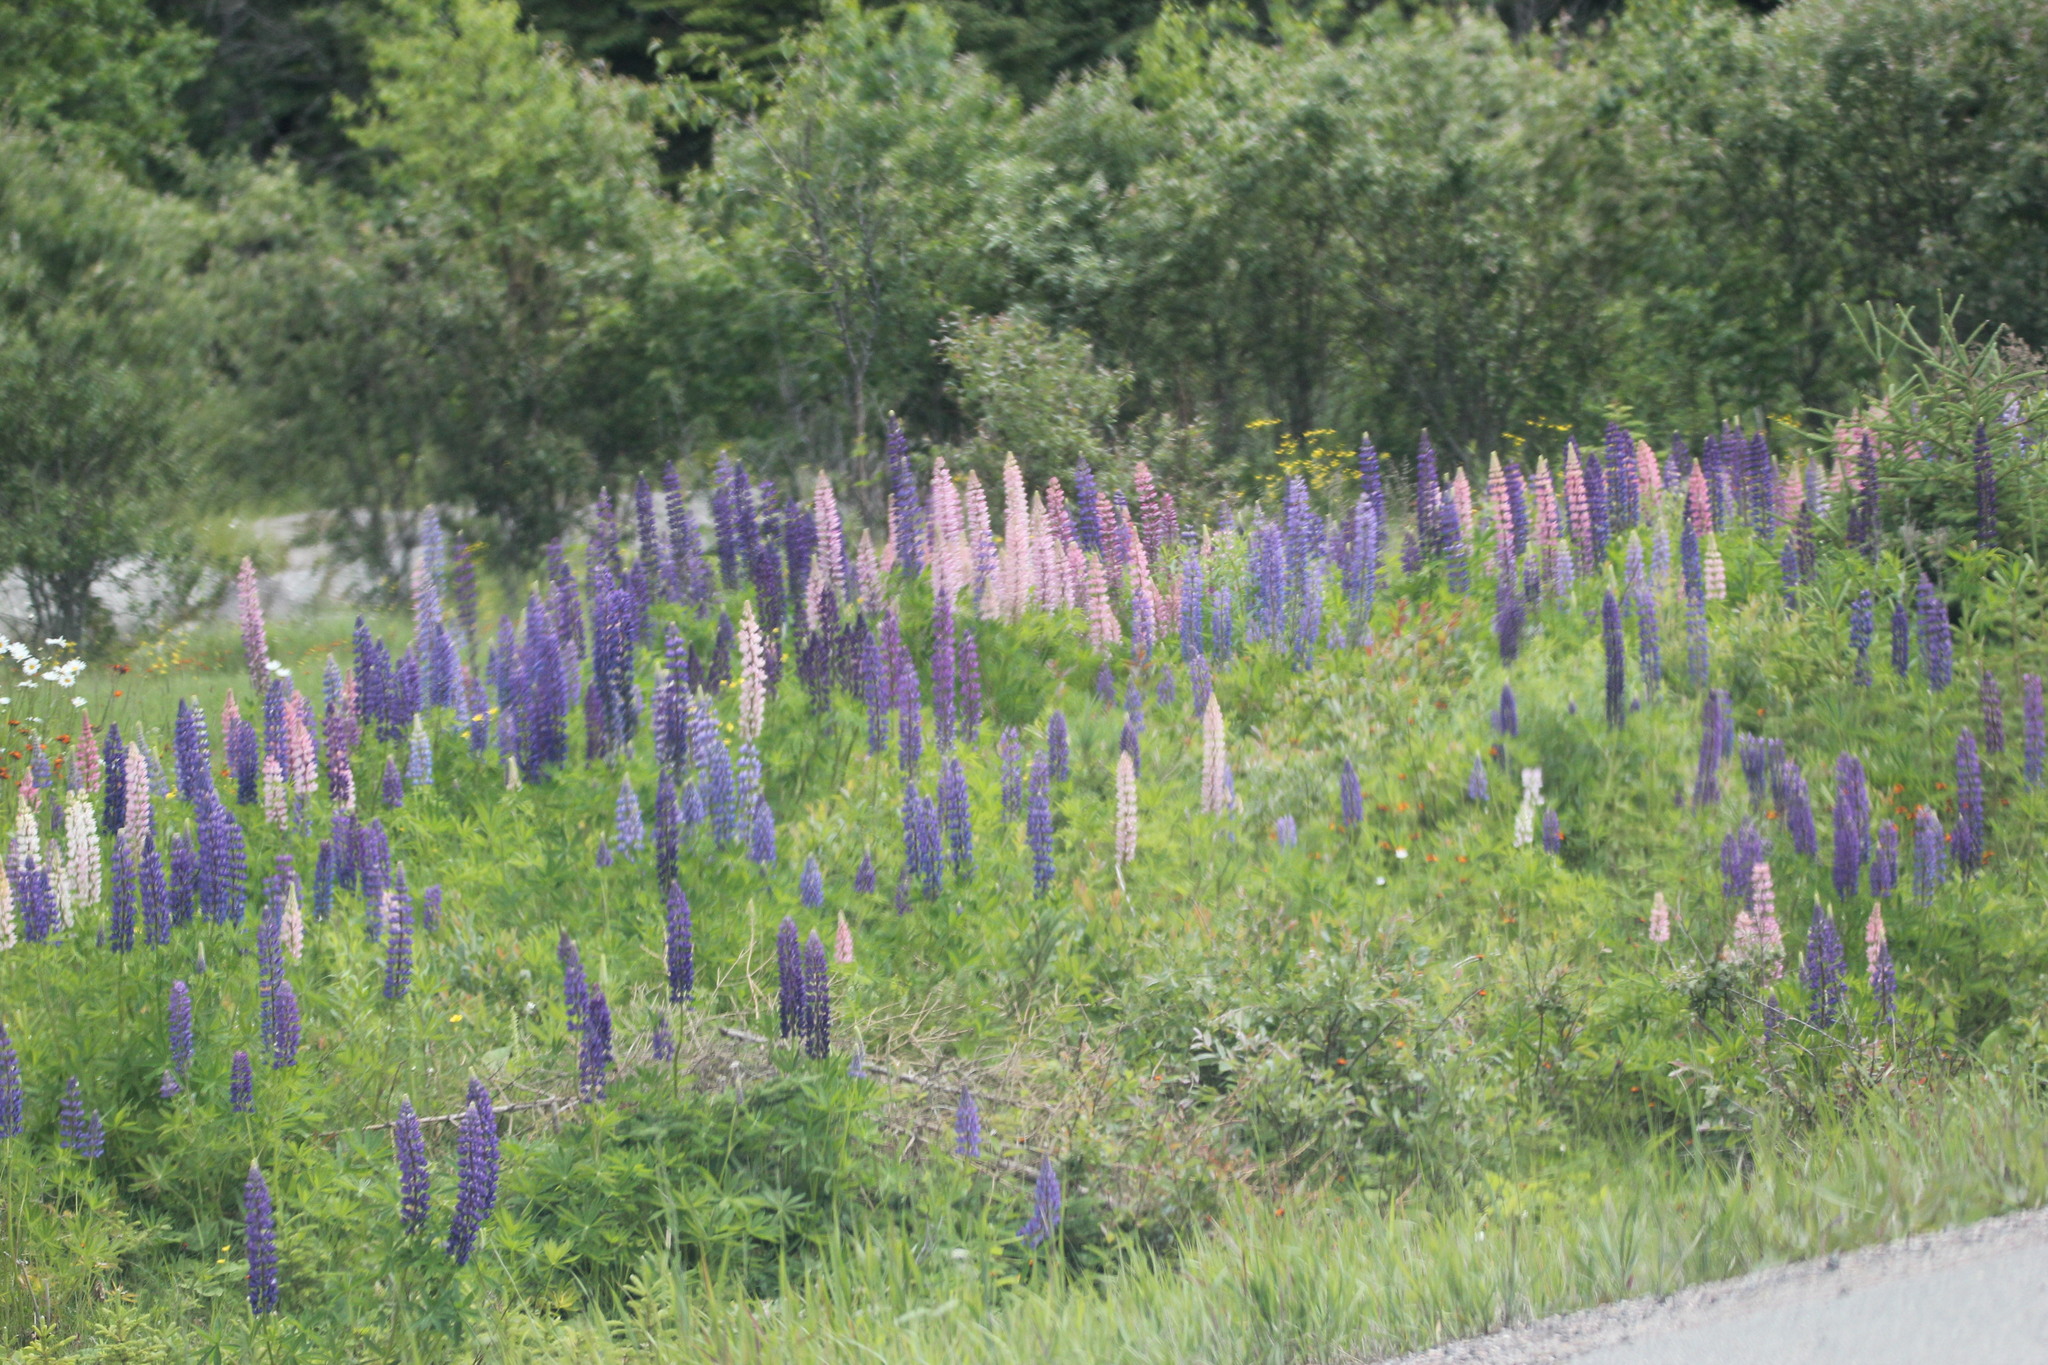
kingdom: Plantae
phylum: Tracheophyta
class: Magnoliopsida
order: Fabales
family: Fabaceae
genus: Lupinus
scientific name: Lupinus polyphyllus
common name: Garden lupin
